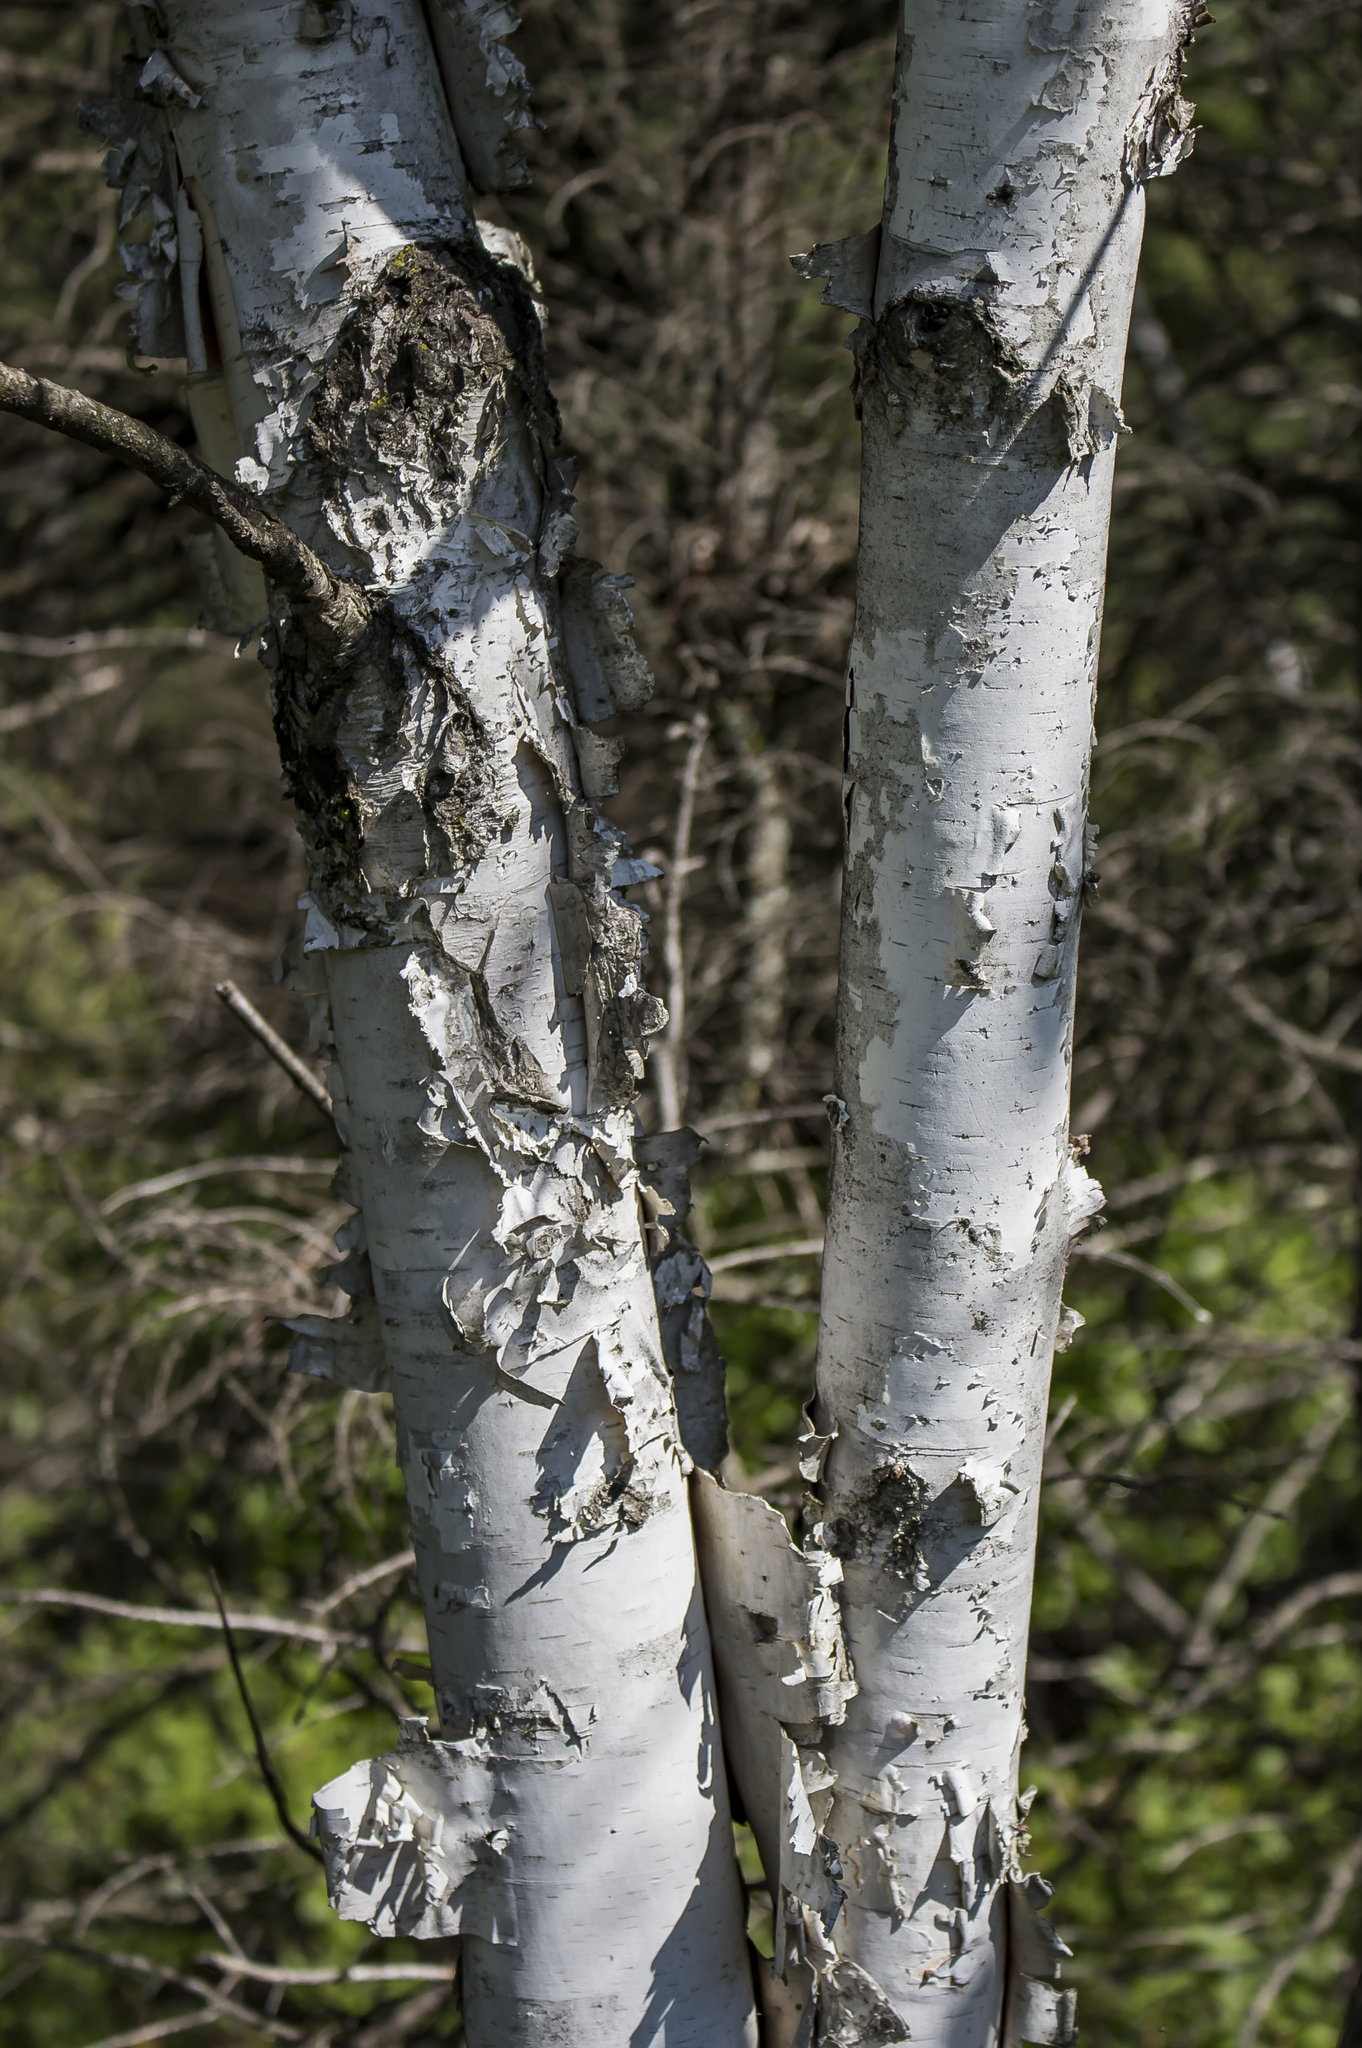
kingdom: Plantae
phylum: Tracheophyta
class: Magnoliopsida
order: Fagales
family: Betulaceae
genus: Betula
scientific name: Betula papyrifera
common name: Paper birch
